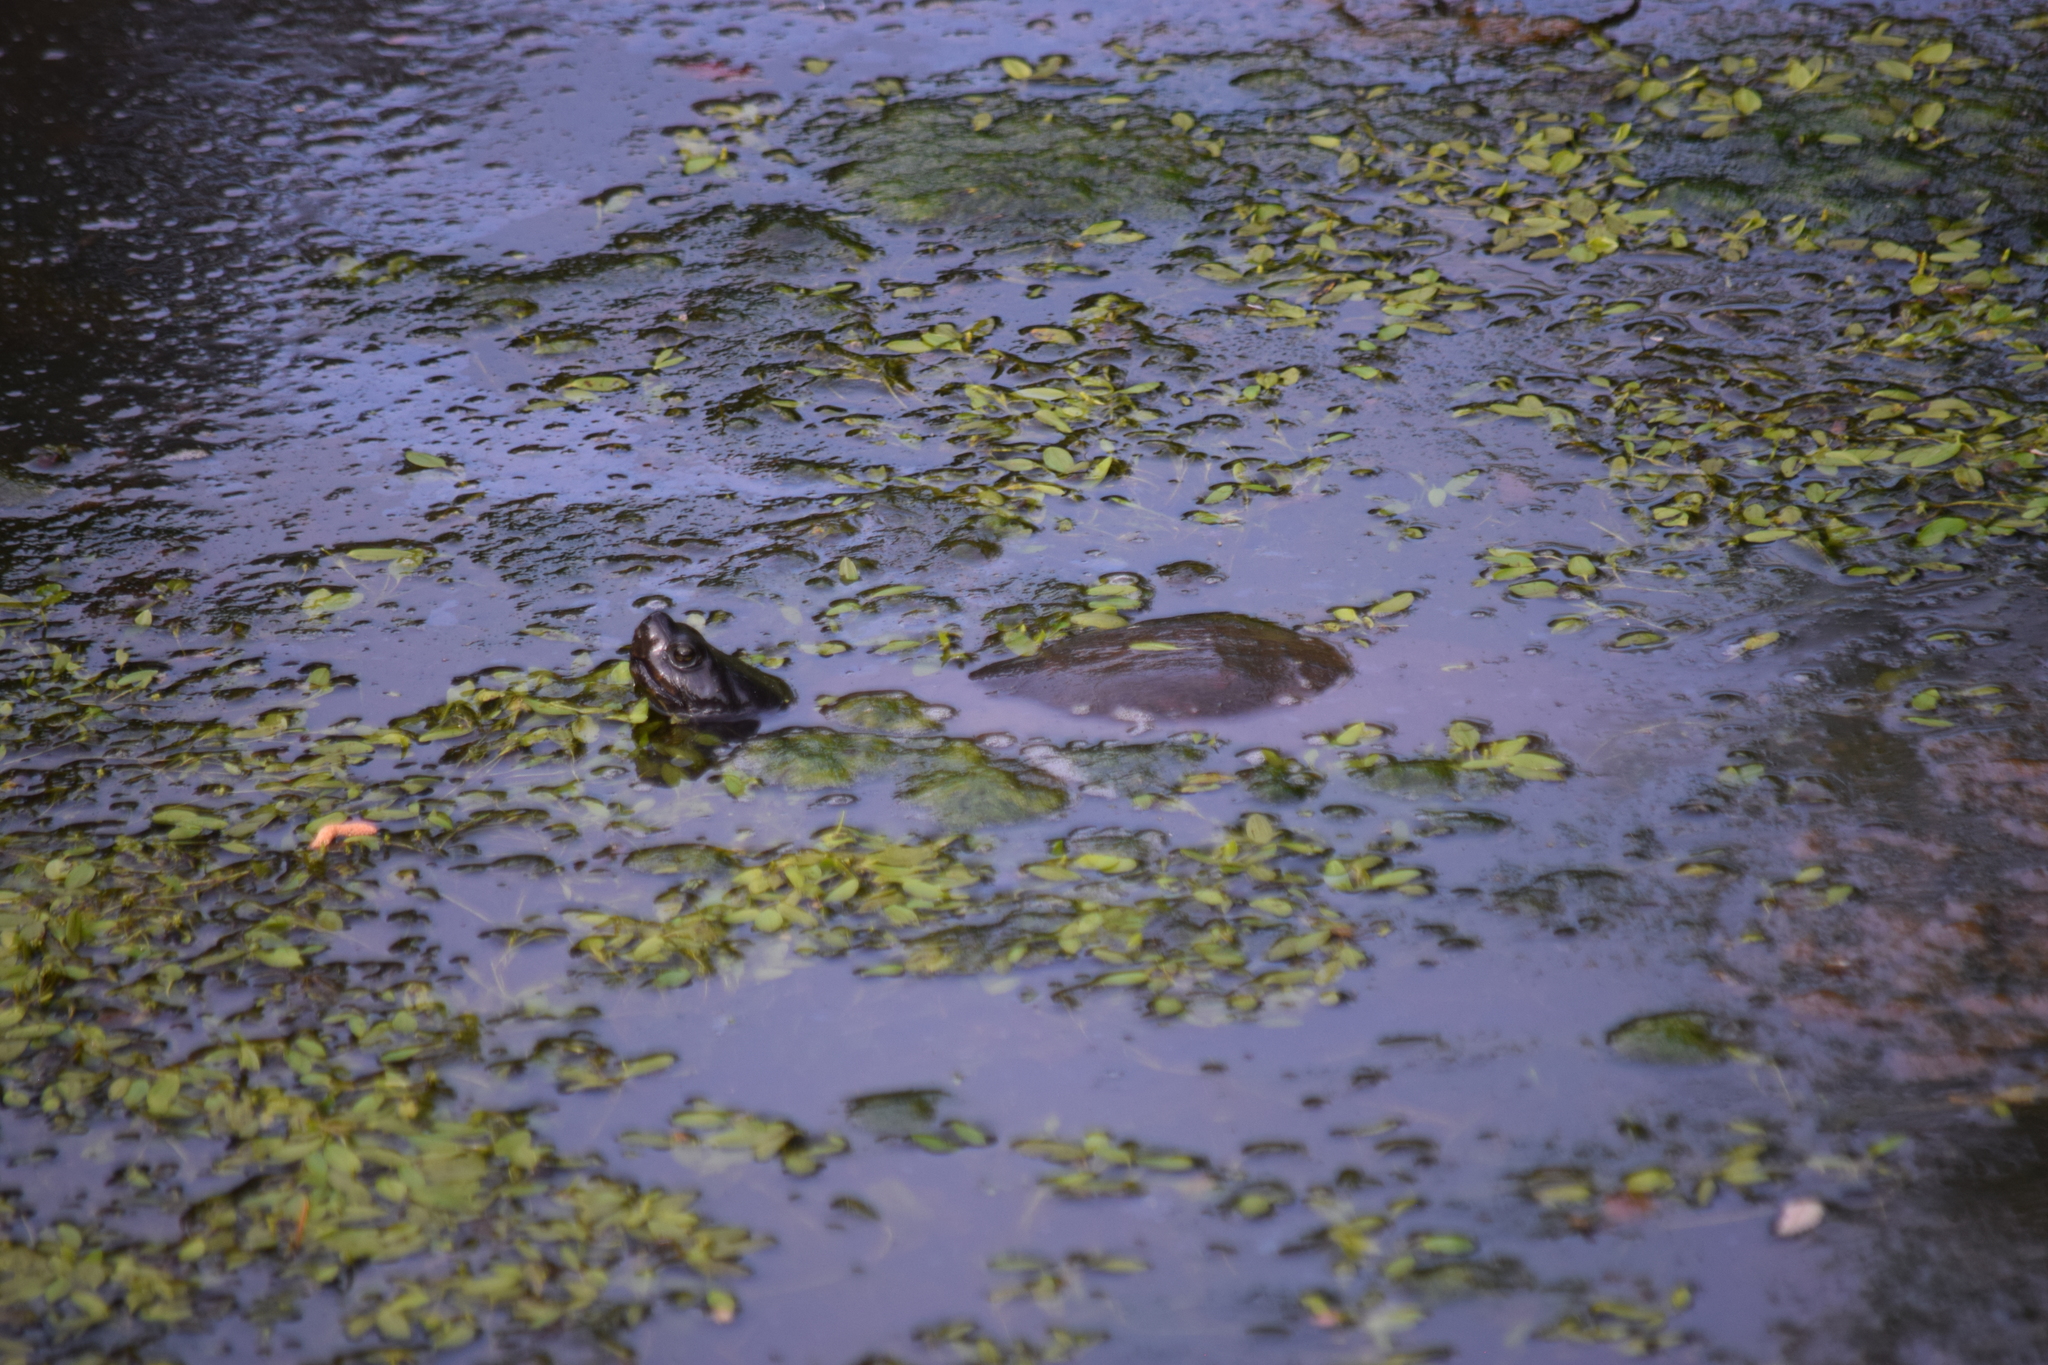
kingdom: Animalia
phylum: Chordata
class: Testudines
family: Emydidae
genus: Pseudemys
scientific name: Pseudemys rubriventris
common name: American red-bellied turtle
